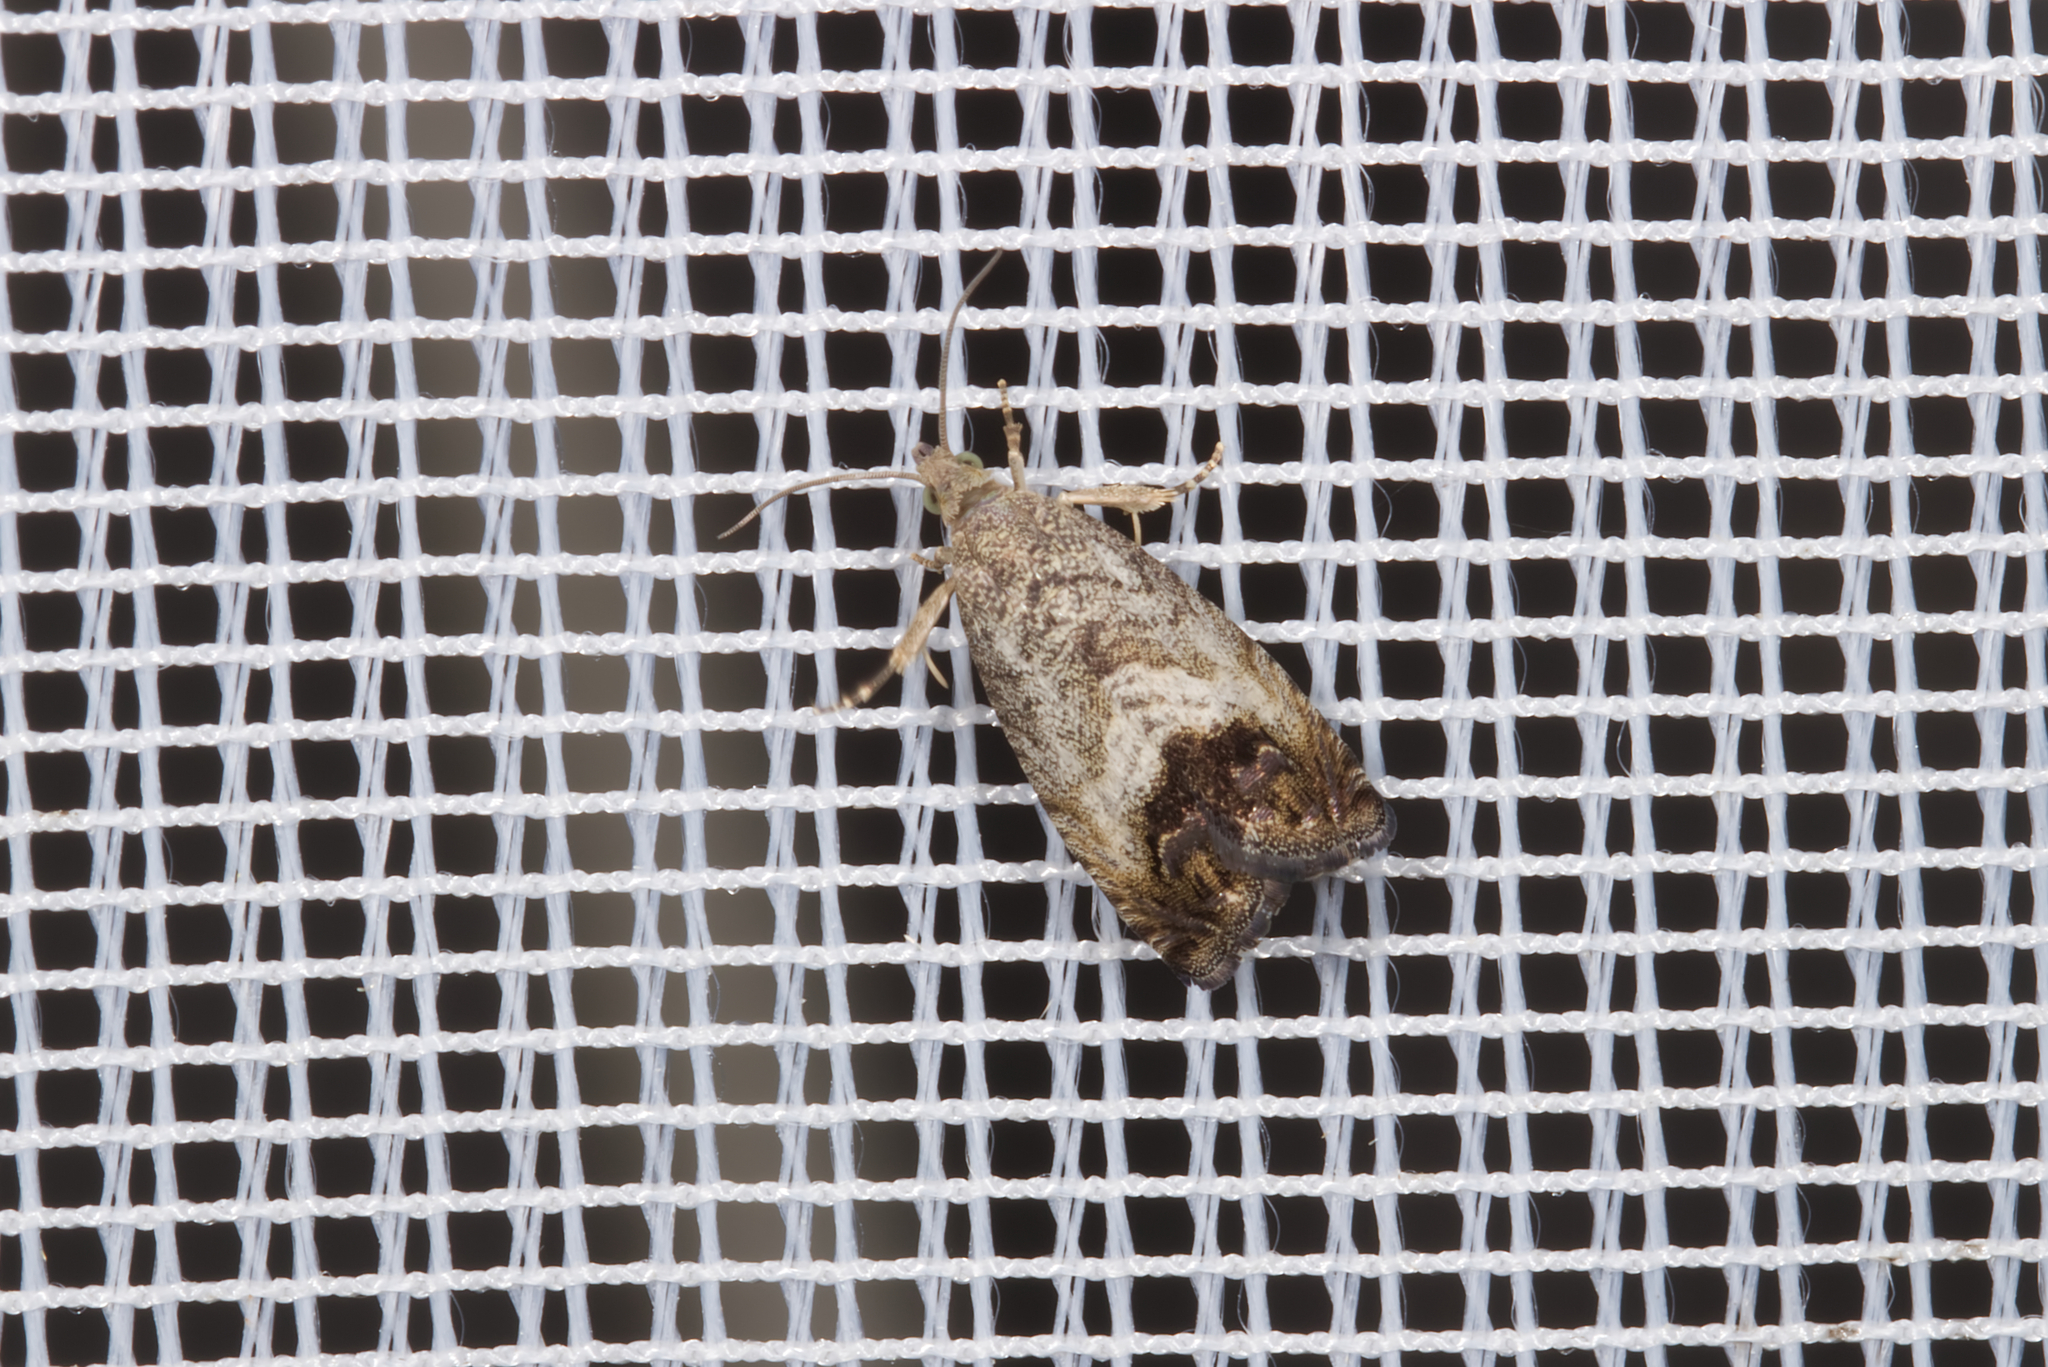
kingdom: Animalia
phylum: Arthropoda
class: Insecta
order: Lepidoptera
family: Tortricidae
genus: Cydia
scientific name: Cydia splendana
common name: De: kastanienwickler, eichenwickler es: oruga de la castaña fr: carpocapse des châtaignes it: cidia o tortrice tardiva delle castagne pt: bichado das castanhas gb: acorn moth, chestnut fruit tortrix
